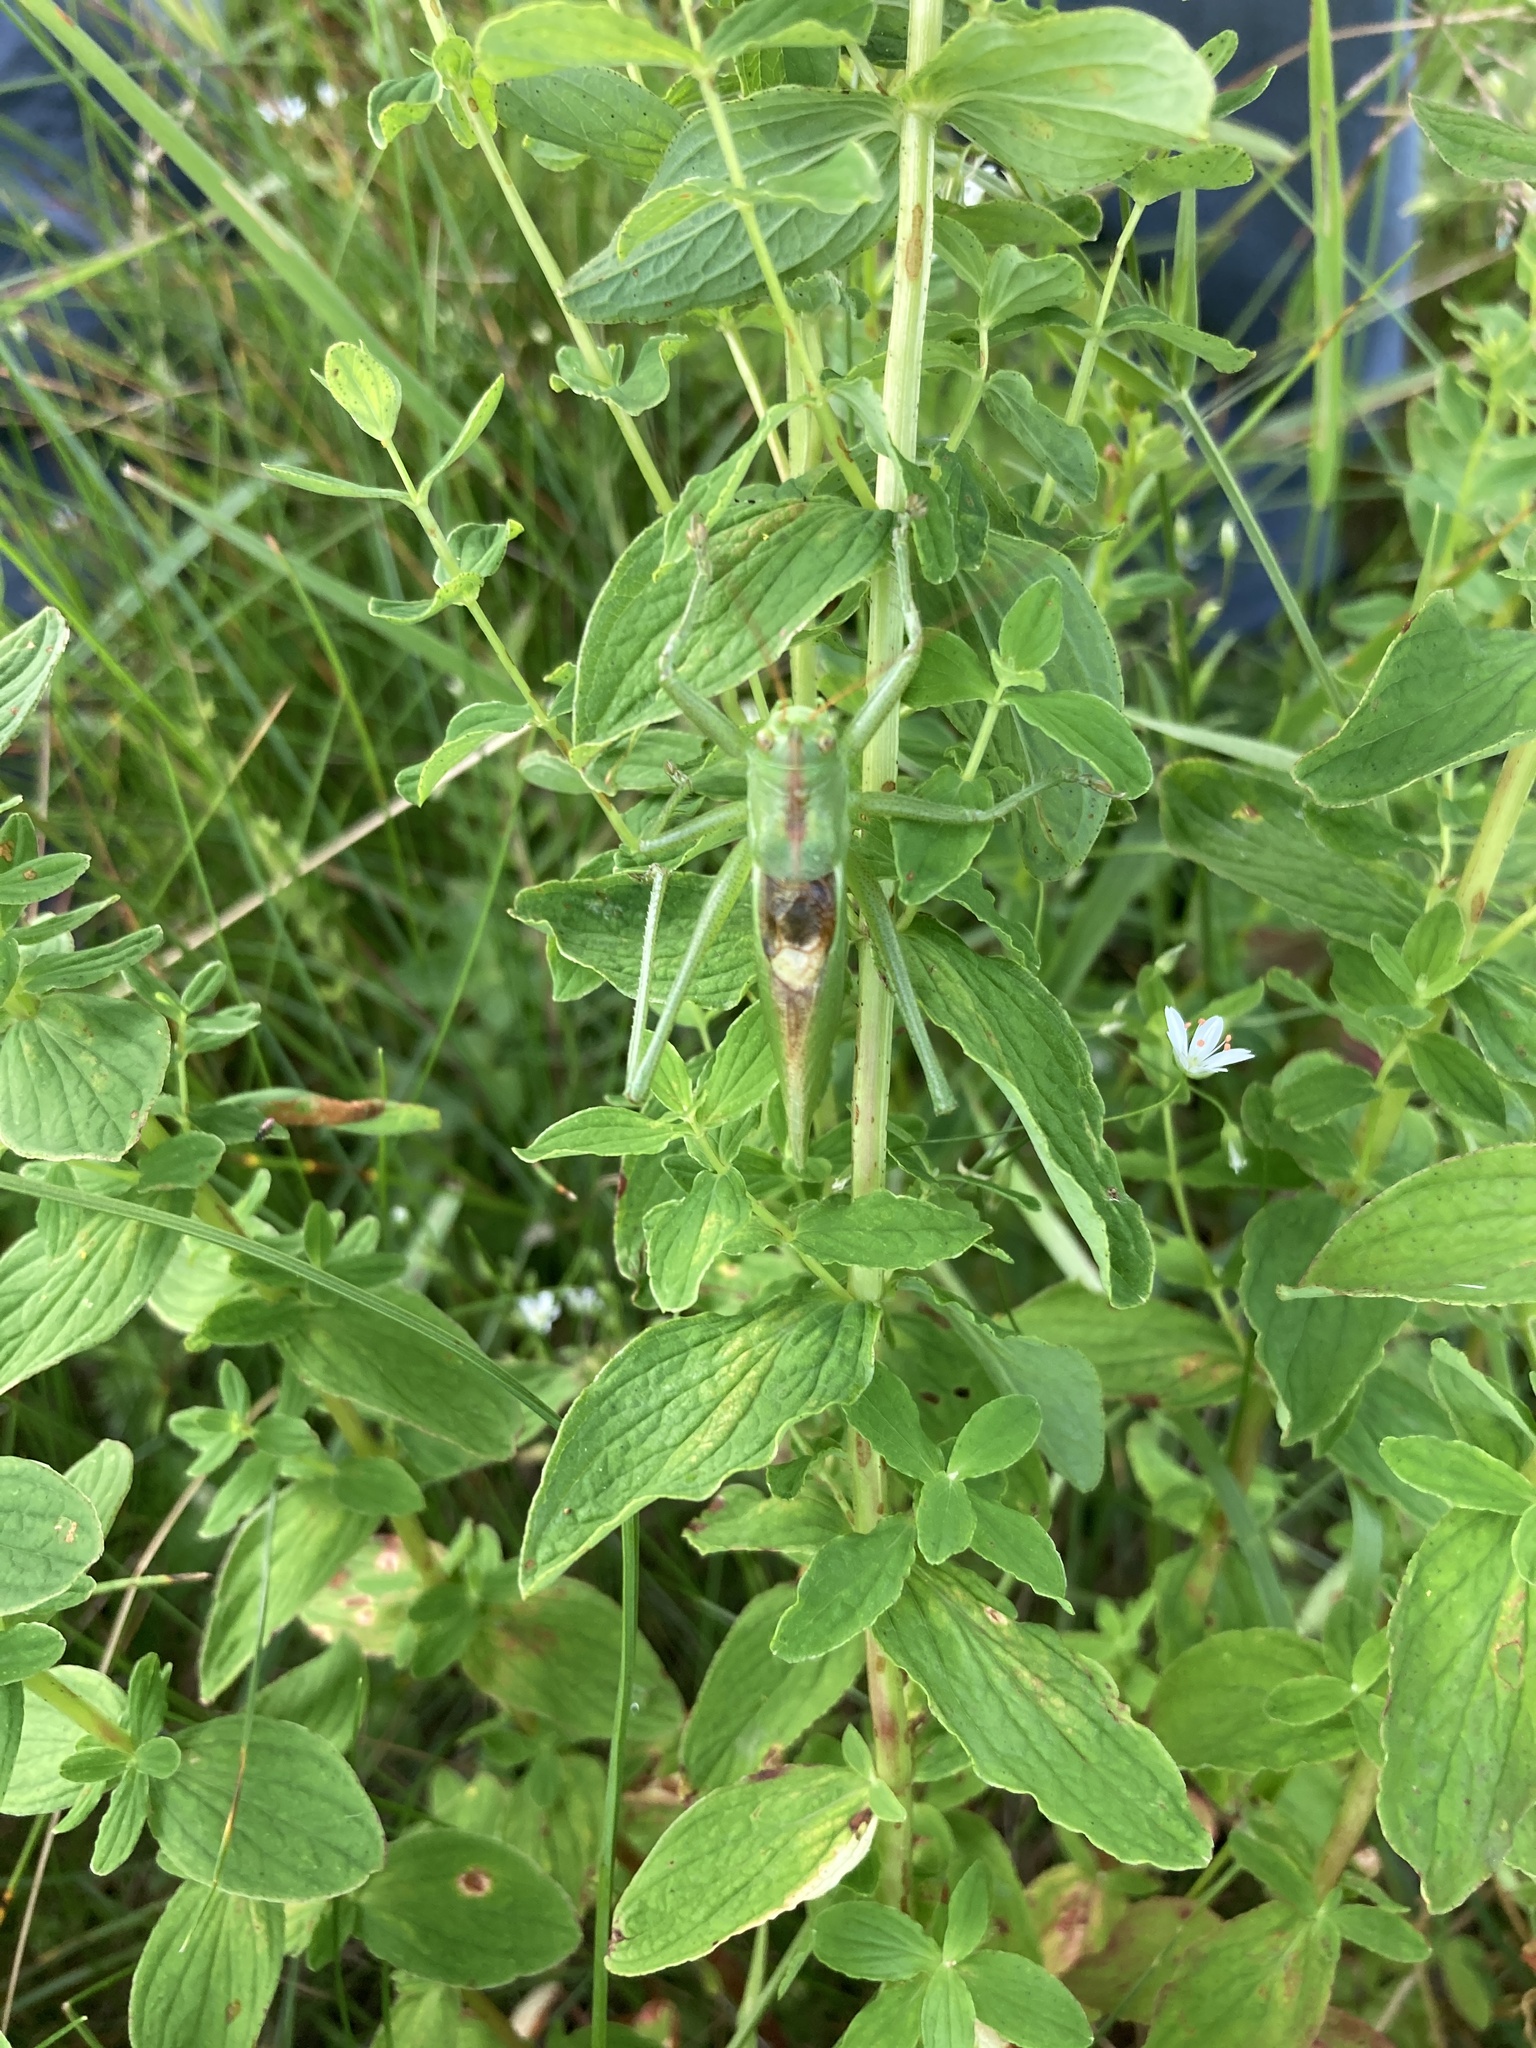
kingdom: Animalia
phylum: Arthropoda
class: Insecta
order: Orthoptera
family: Tettigoniidae
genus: Tettigonia
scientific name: Tettigonia cantans
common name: Upland green bush-cricket
